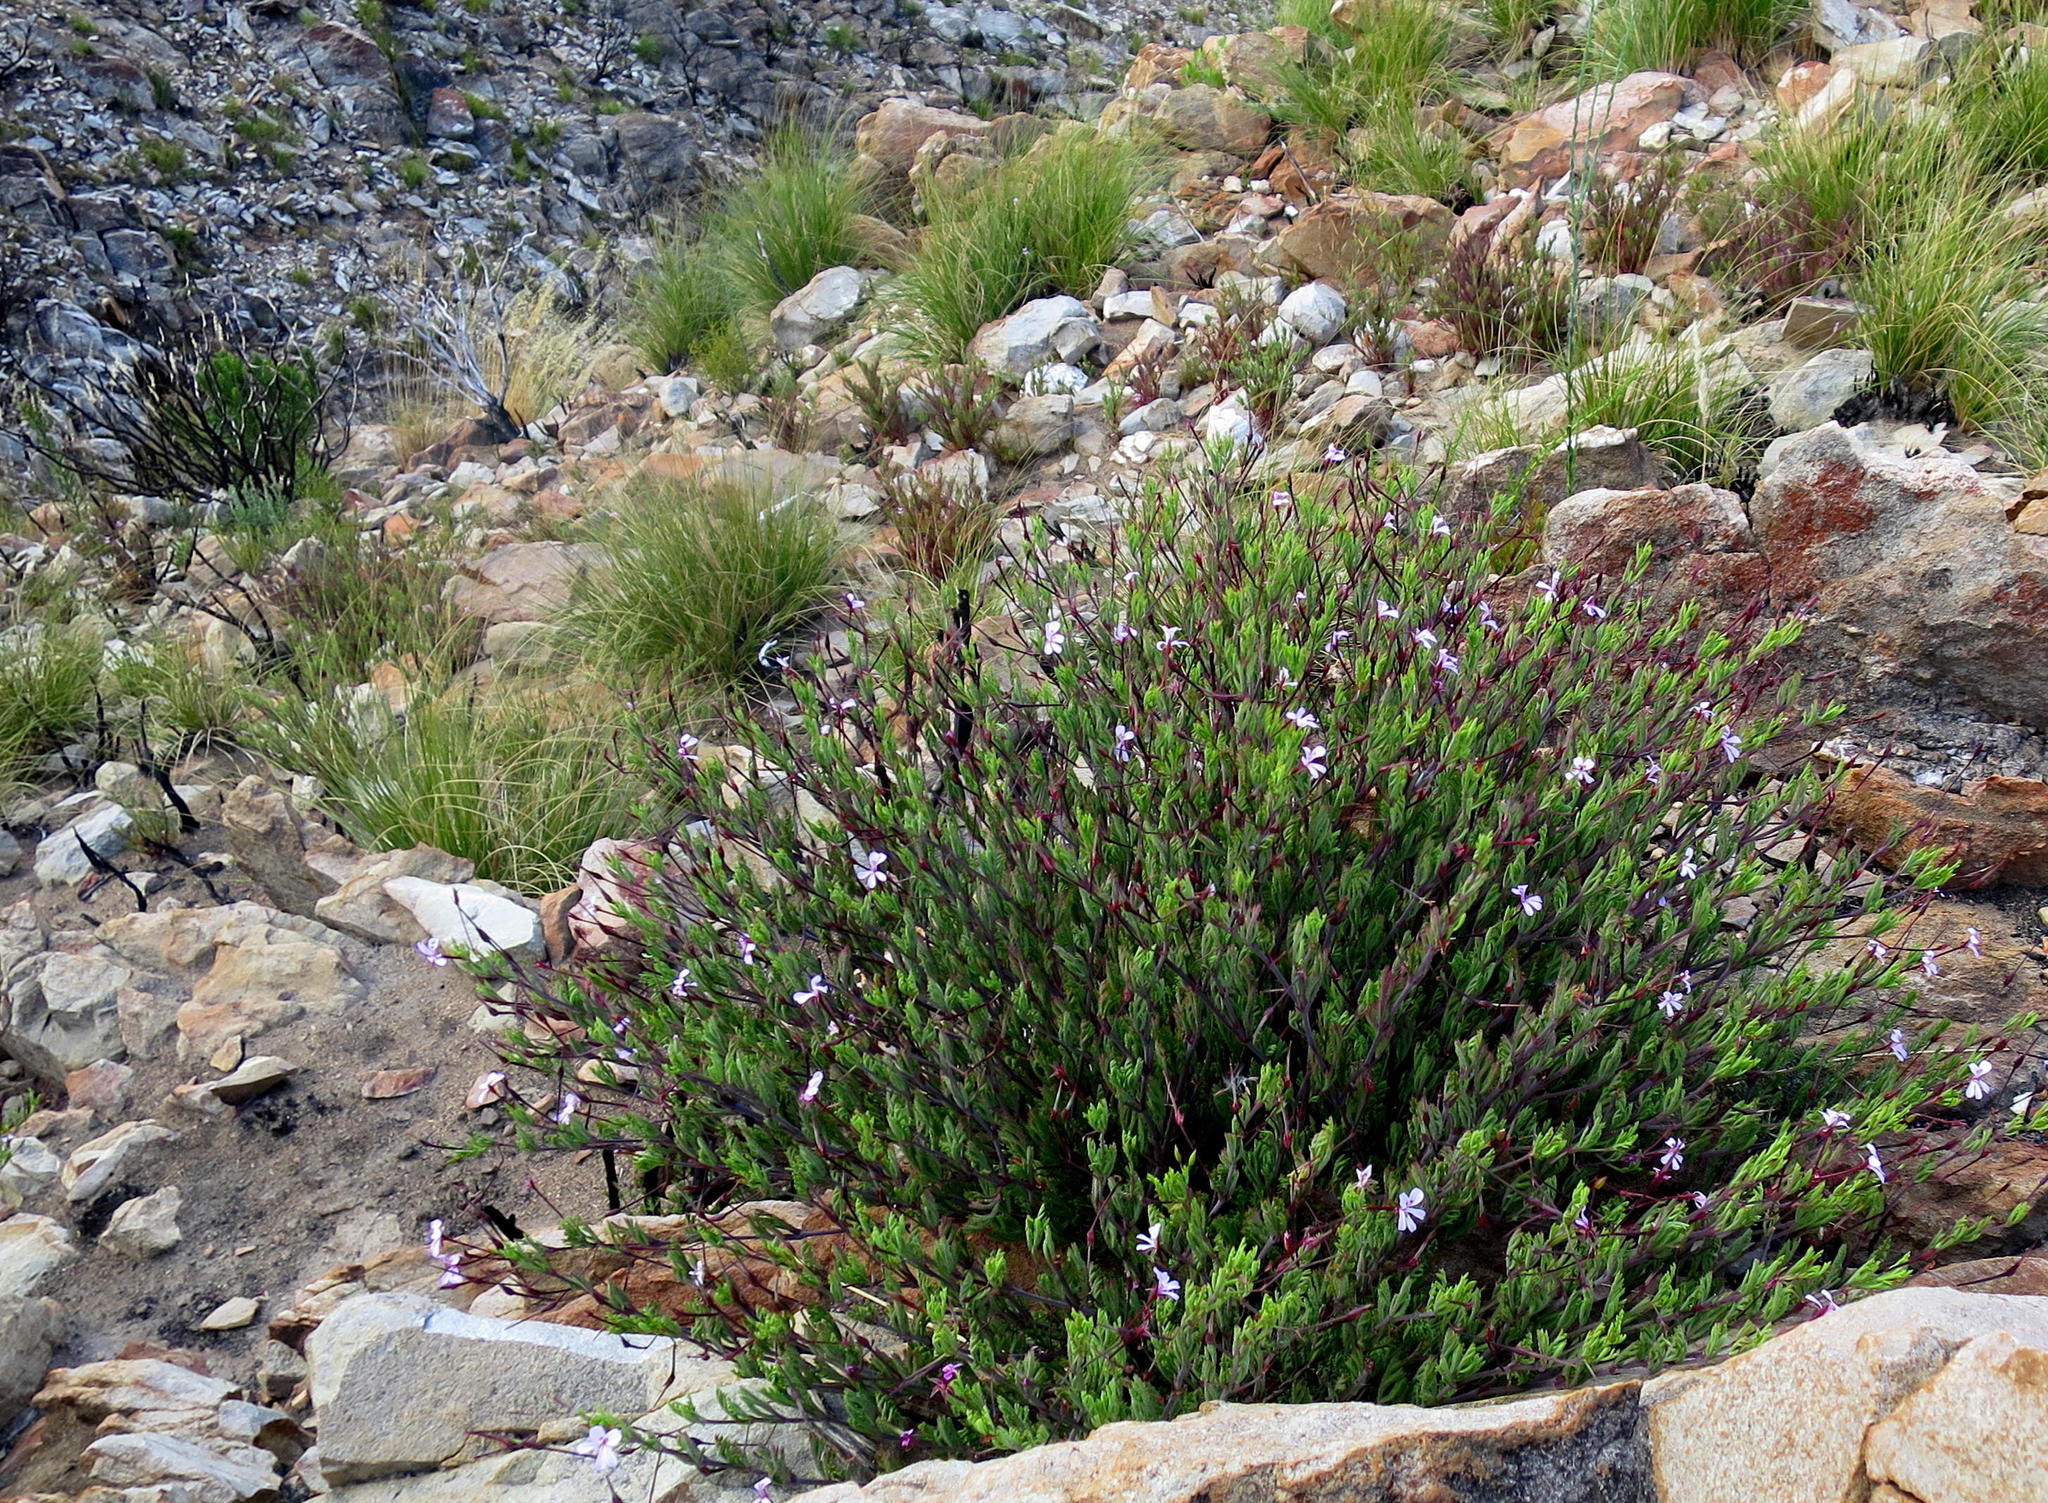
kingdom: Plantae
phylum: Tracheophyta
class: Magnoliopsida
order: Geraniales
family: Geraniaceae
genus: Pelargonium
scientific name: Pelargonium laevigatum
